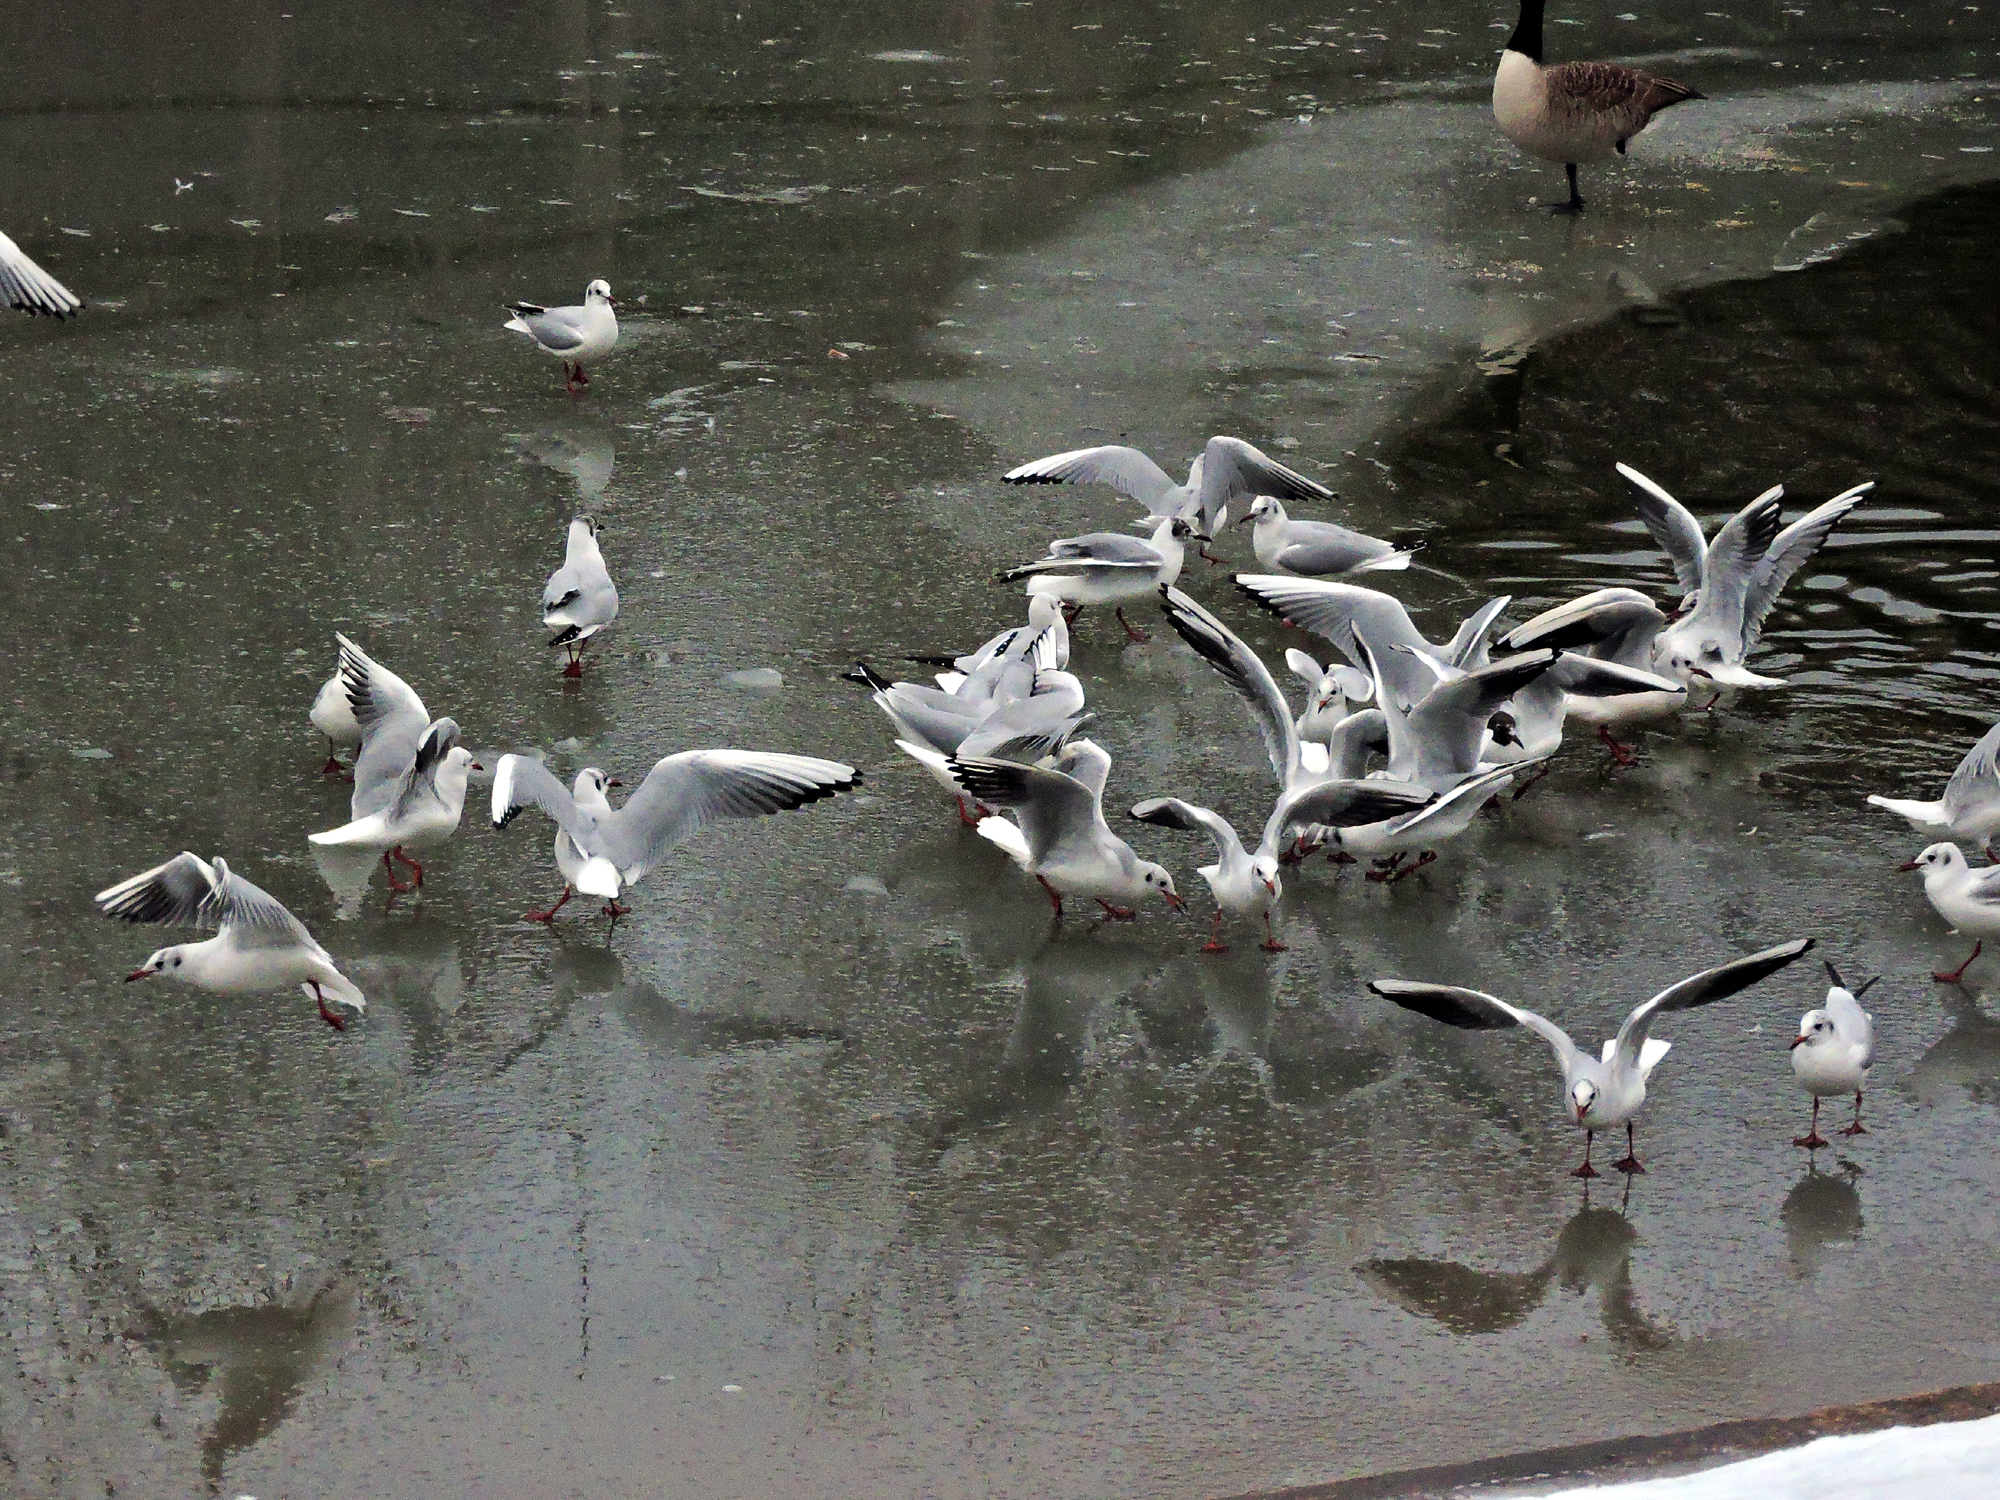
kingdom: Animalia
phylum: Chordata
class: Aves
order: Charadriiformes
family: Laridae
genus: Chroicocephalus
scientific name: Chroicocephalus ridibundus
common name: Black-headed gull
